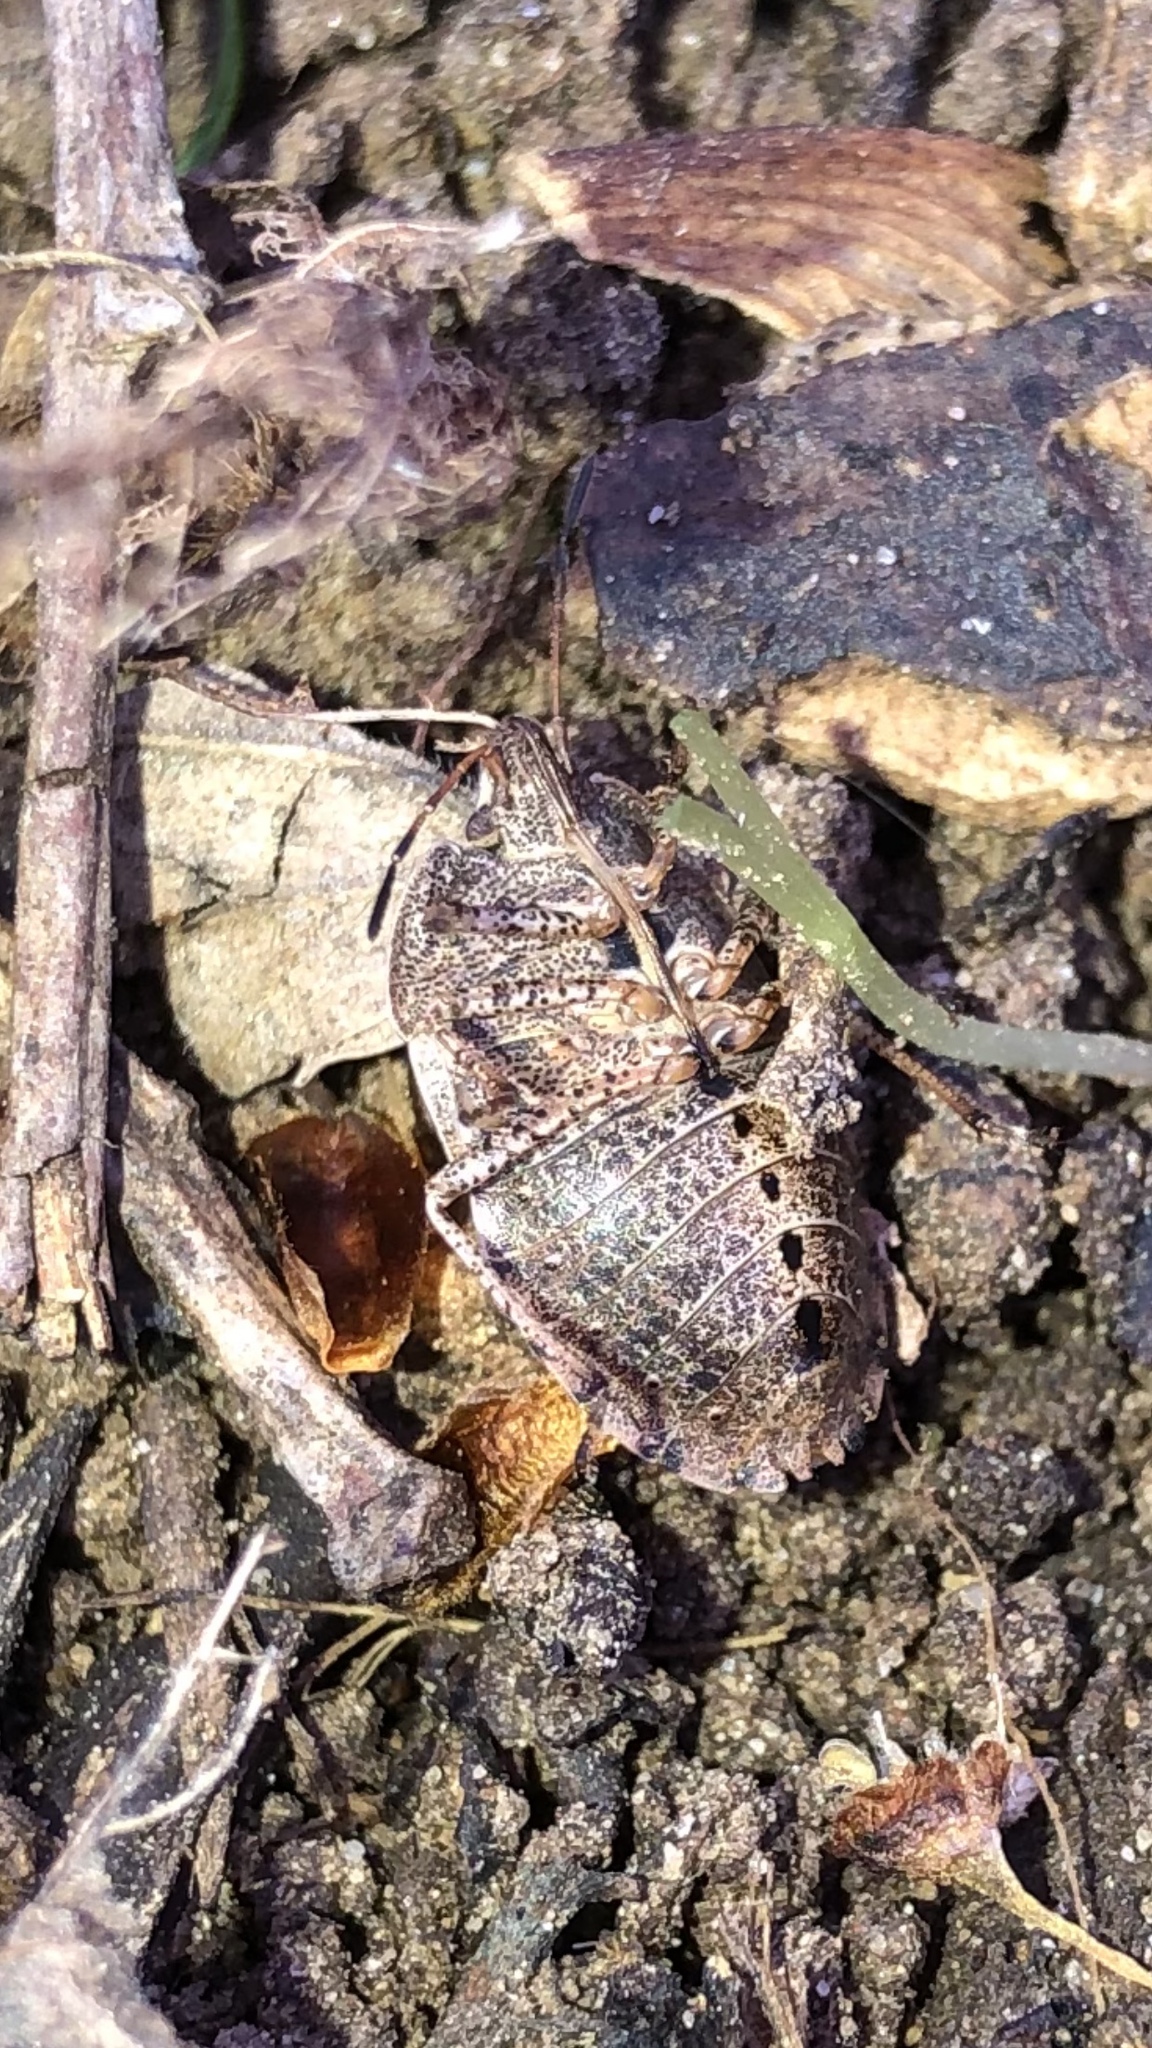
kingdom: Animalia
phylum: Arthropoda
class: Insecta
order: Hemiptera
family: Pentatomidae
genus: Menecles
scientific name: Menecles insertus
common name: Elf shoe stink bug
